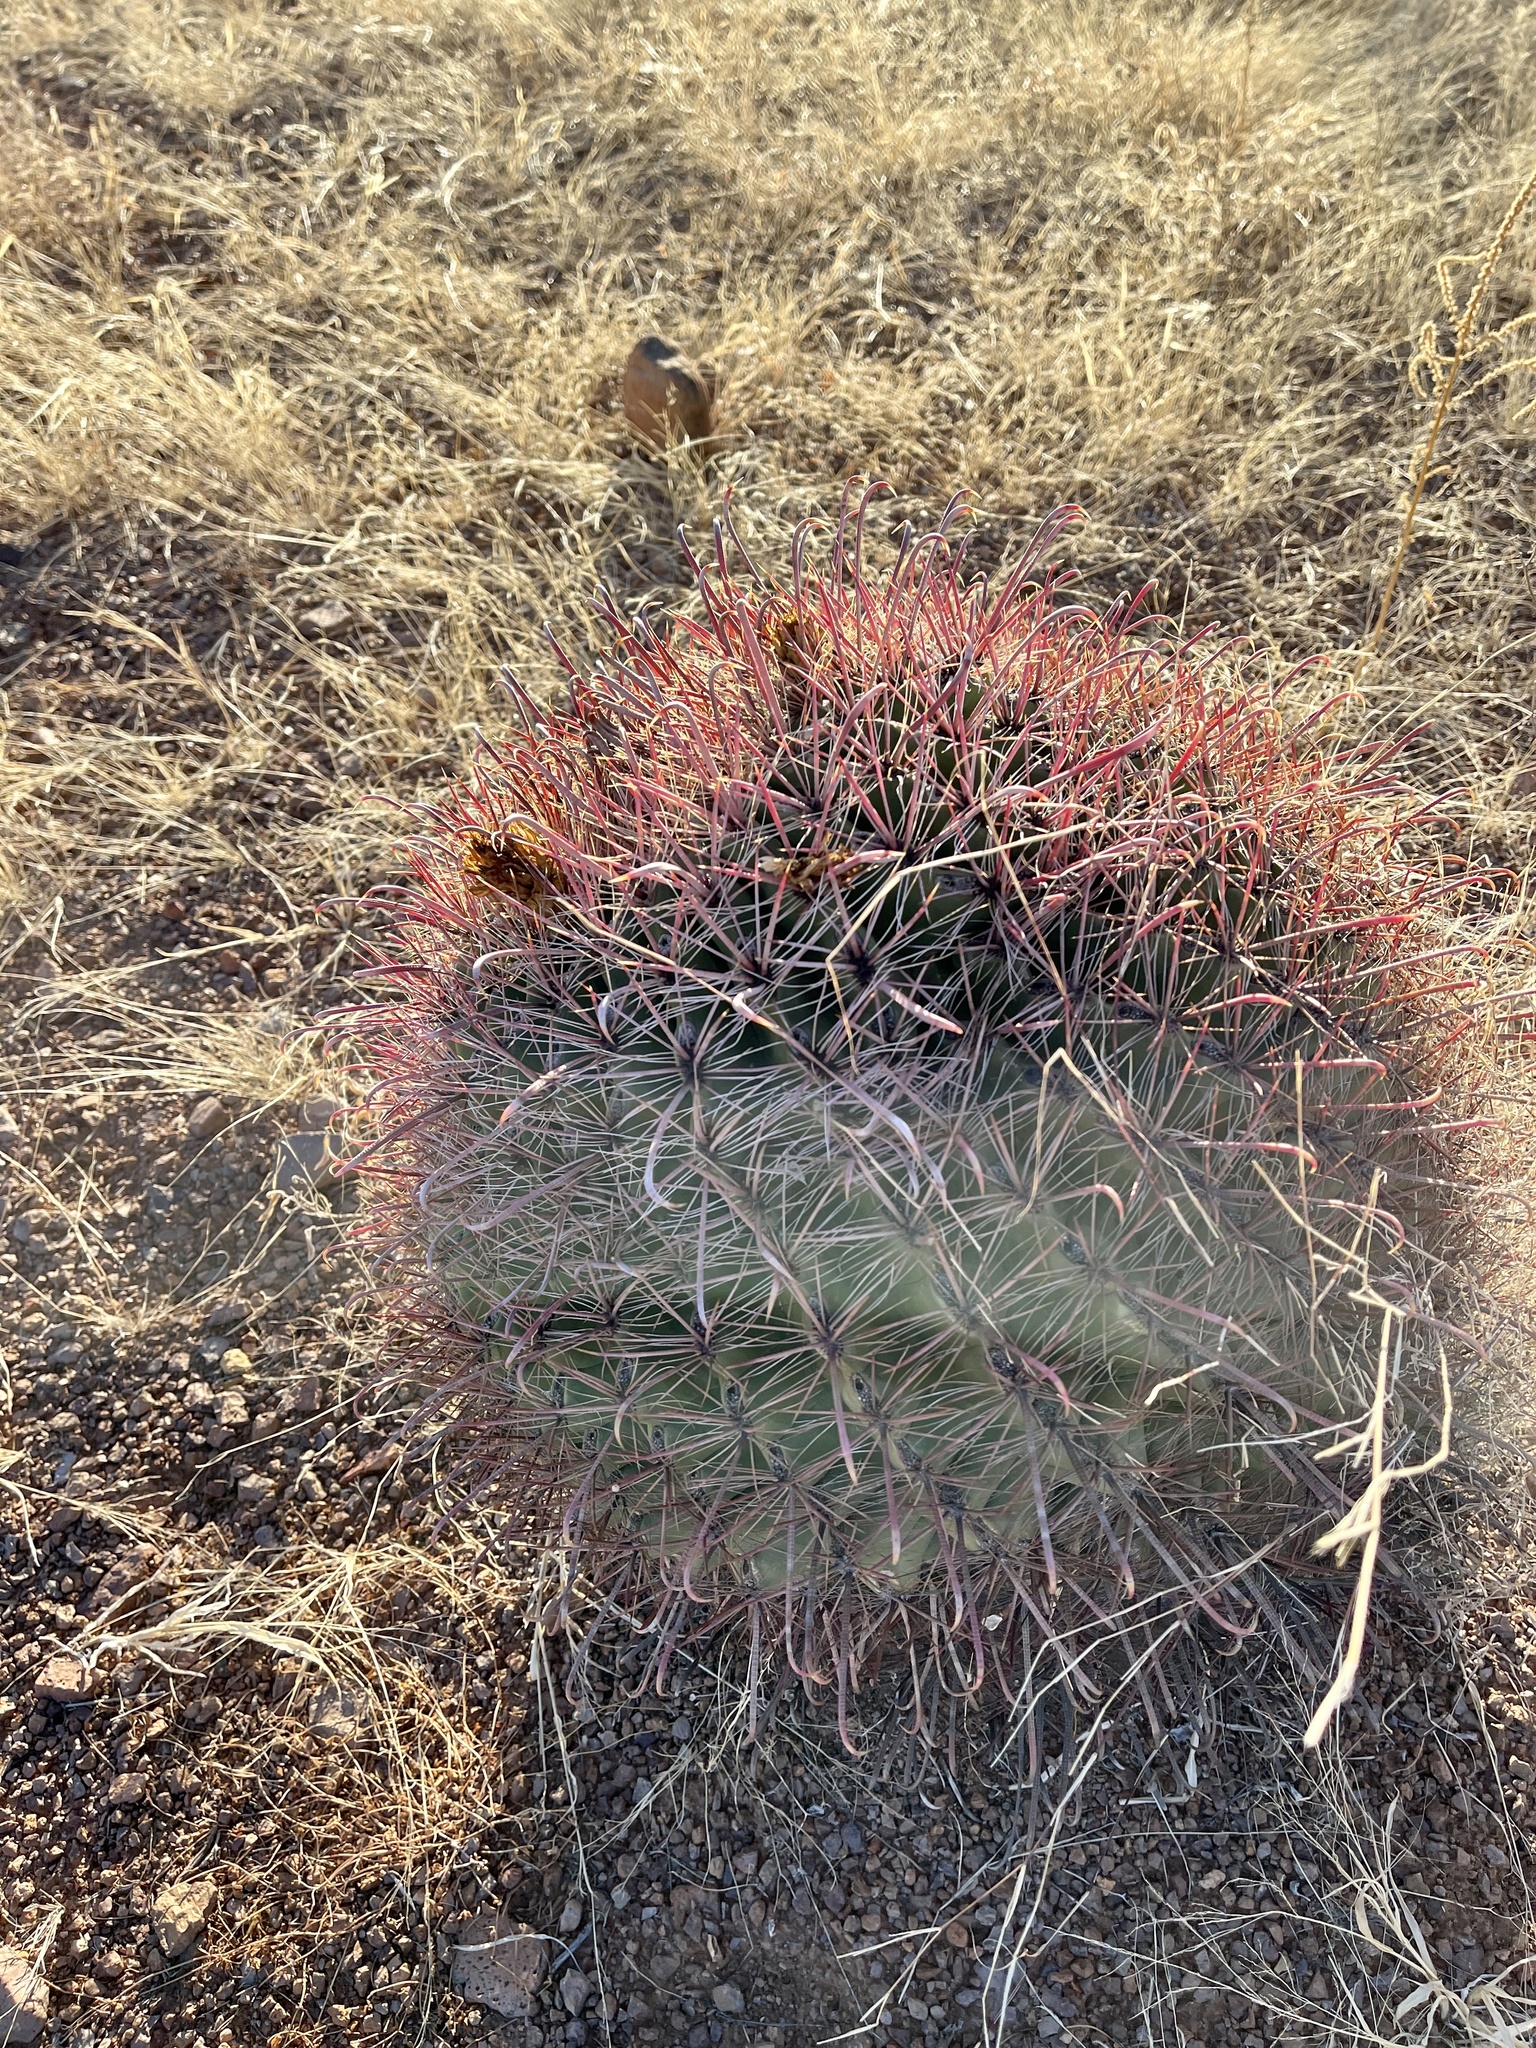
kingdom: Plantae
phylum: Tracheophyta
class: Magnoliopsida
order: Caryophyllales
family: Cactaceae
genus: Ferocactus
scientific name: Ferocactus wislizeni
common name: Candy barrel cactus
